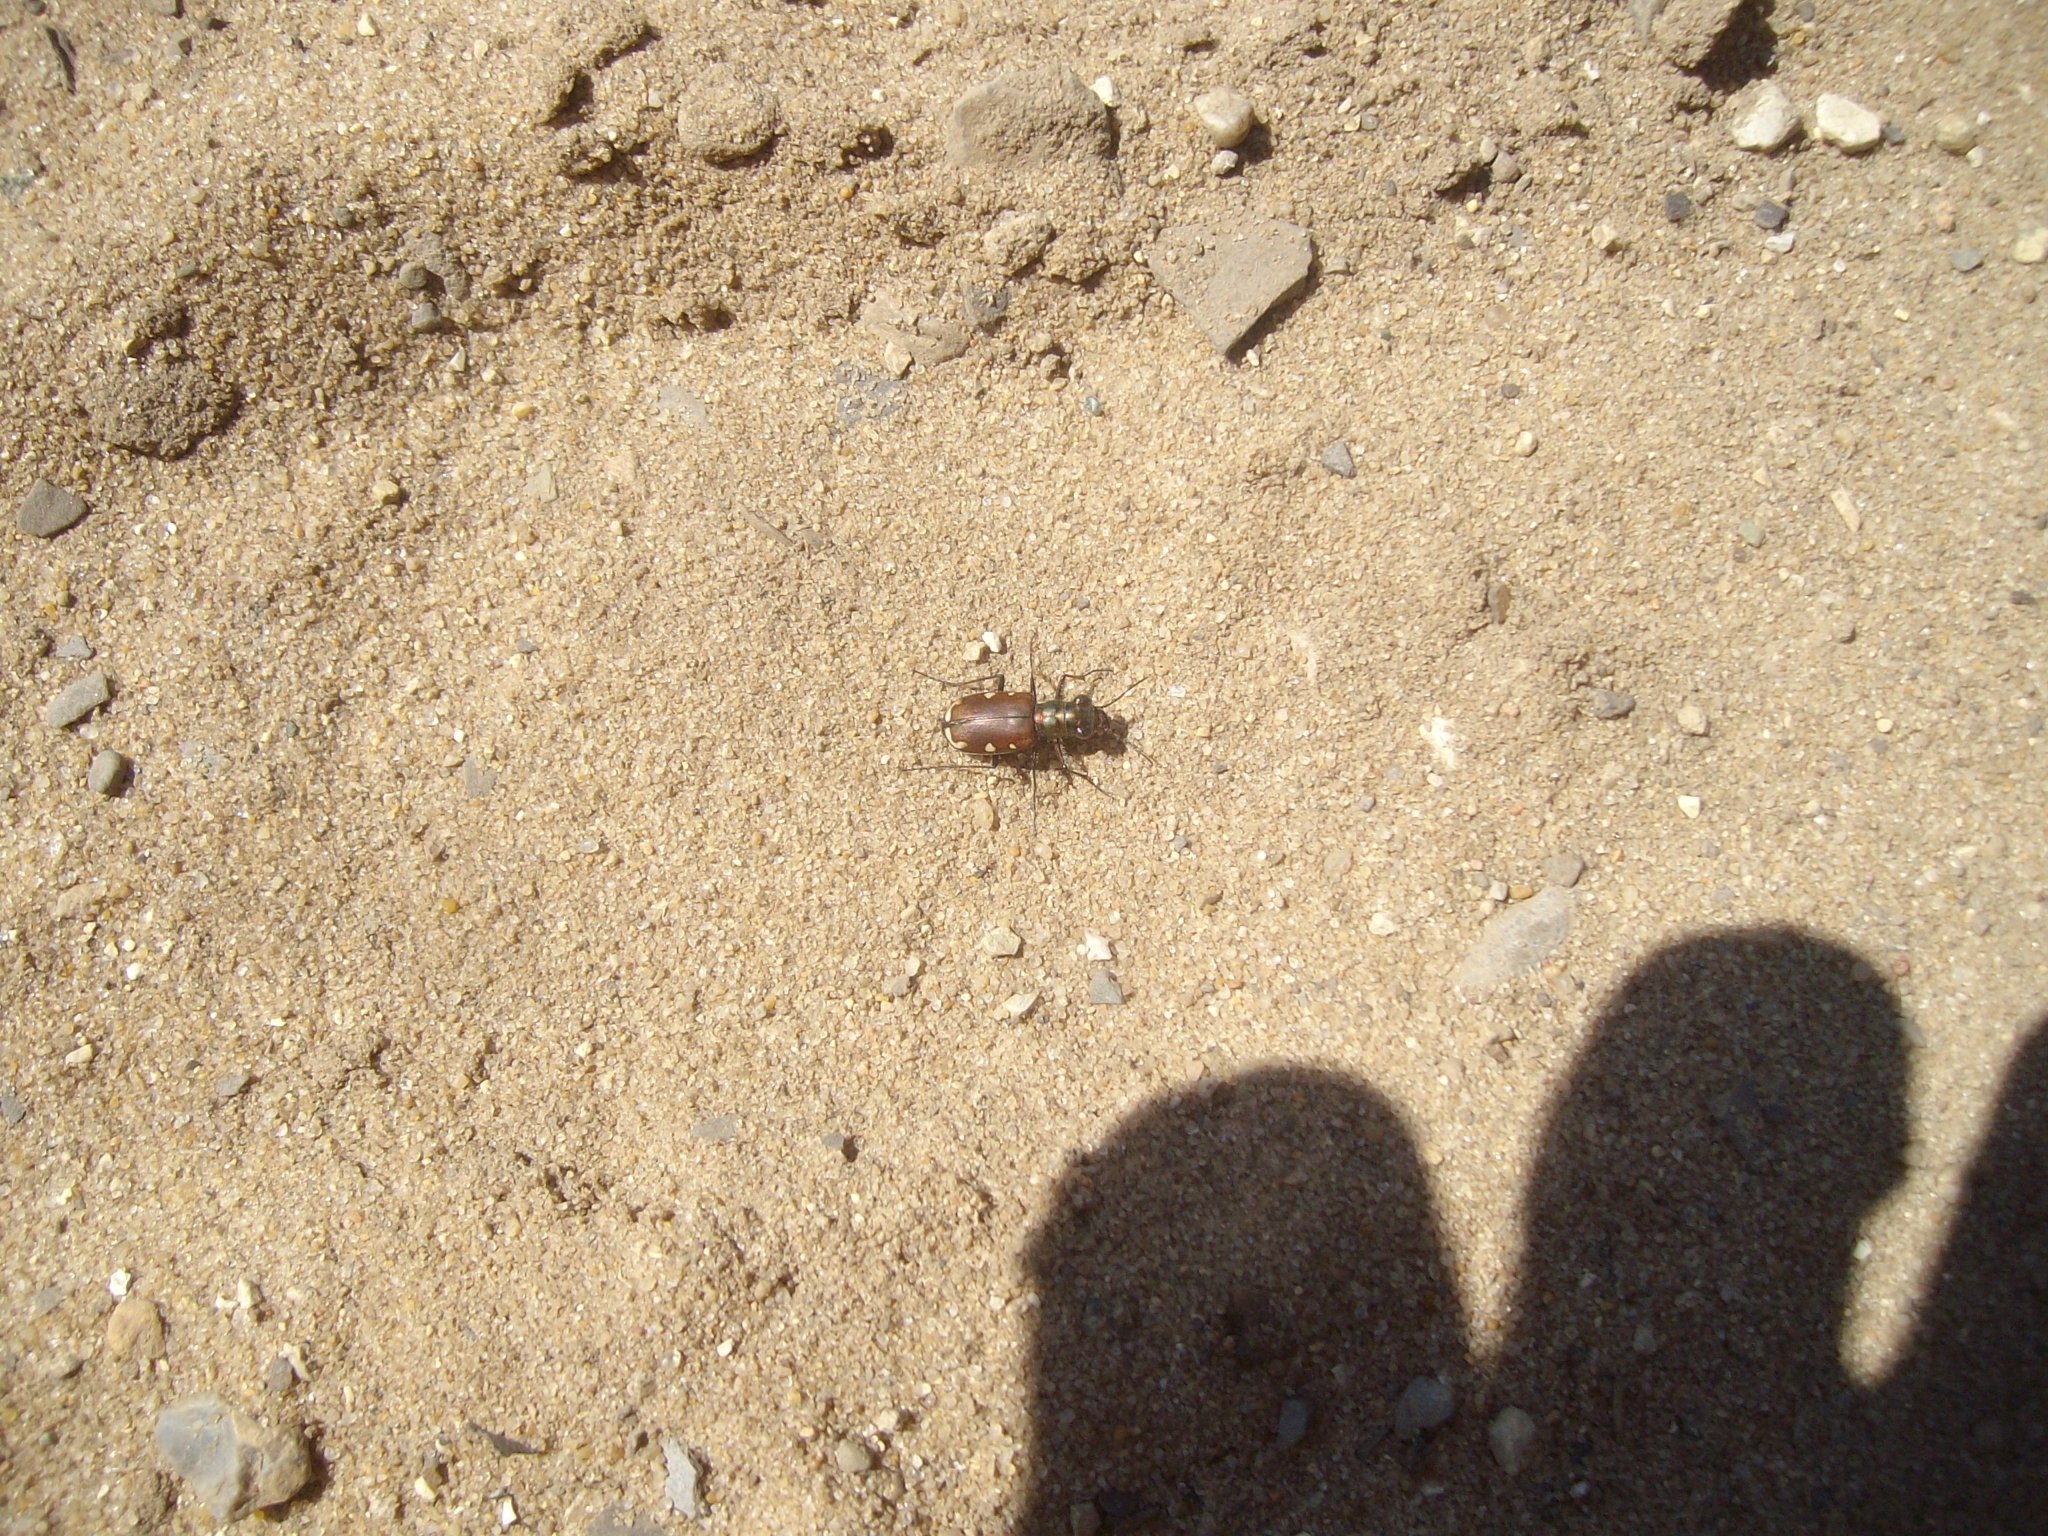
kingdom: Animalia
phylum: Arthropoda
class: Insecta
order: Coleoptera
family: Carabidae
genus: Cicindela
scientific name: Cicindela scutellaris
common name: Festive tiger beetle
